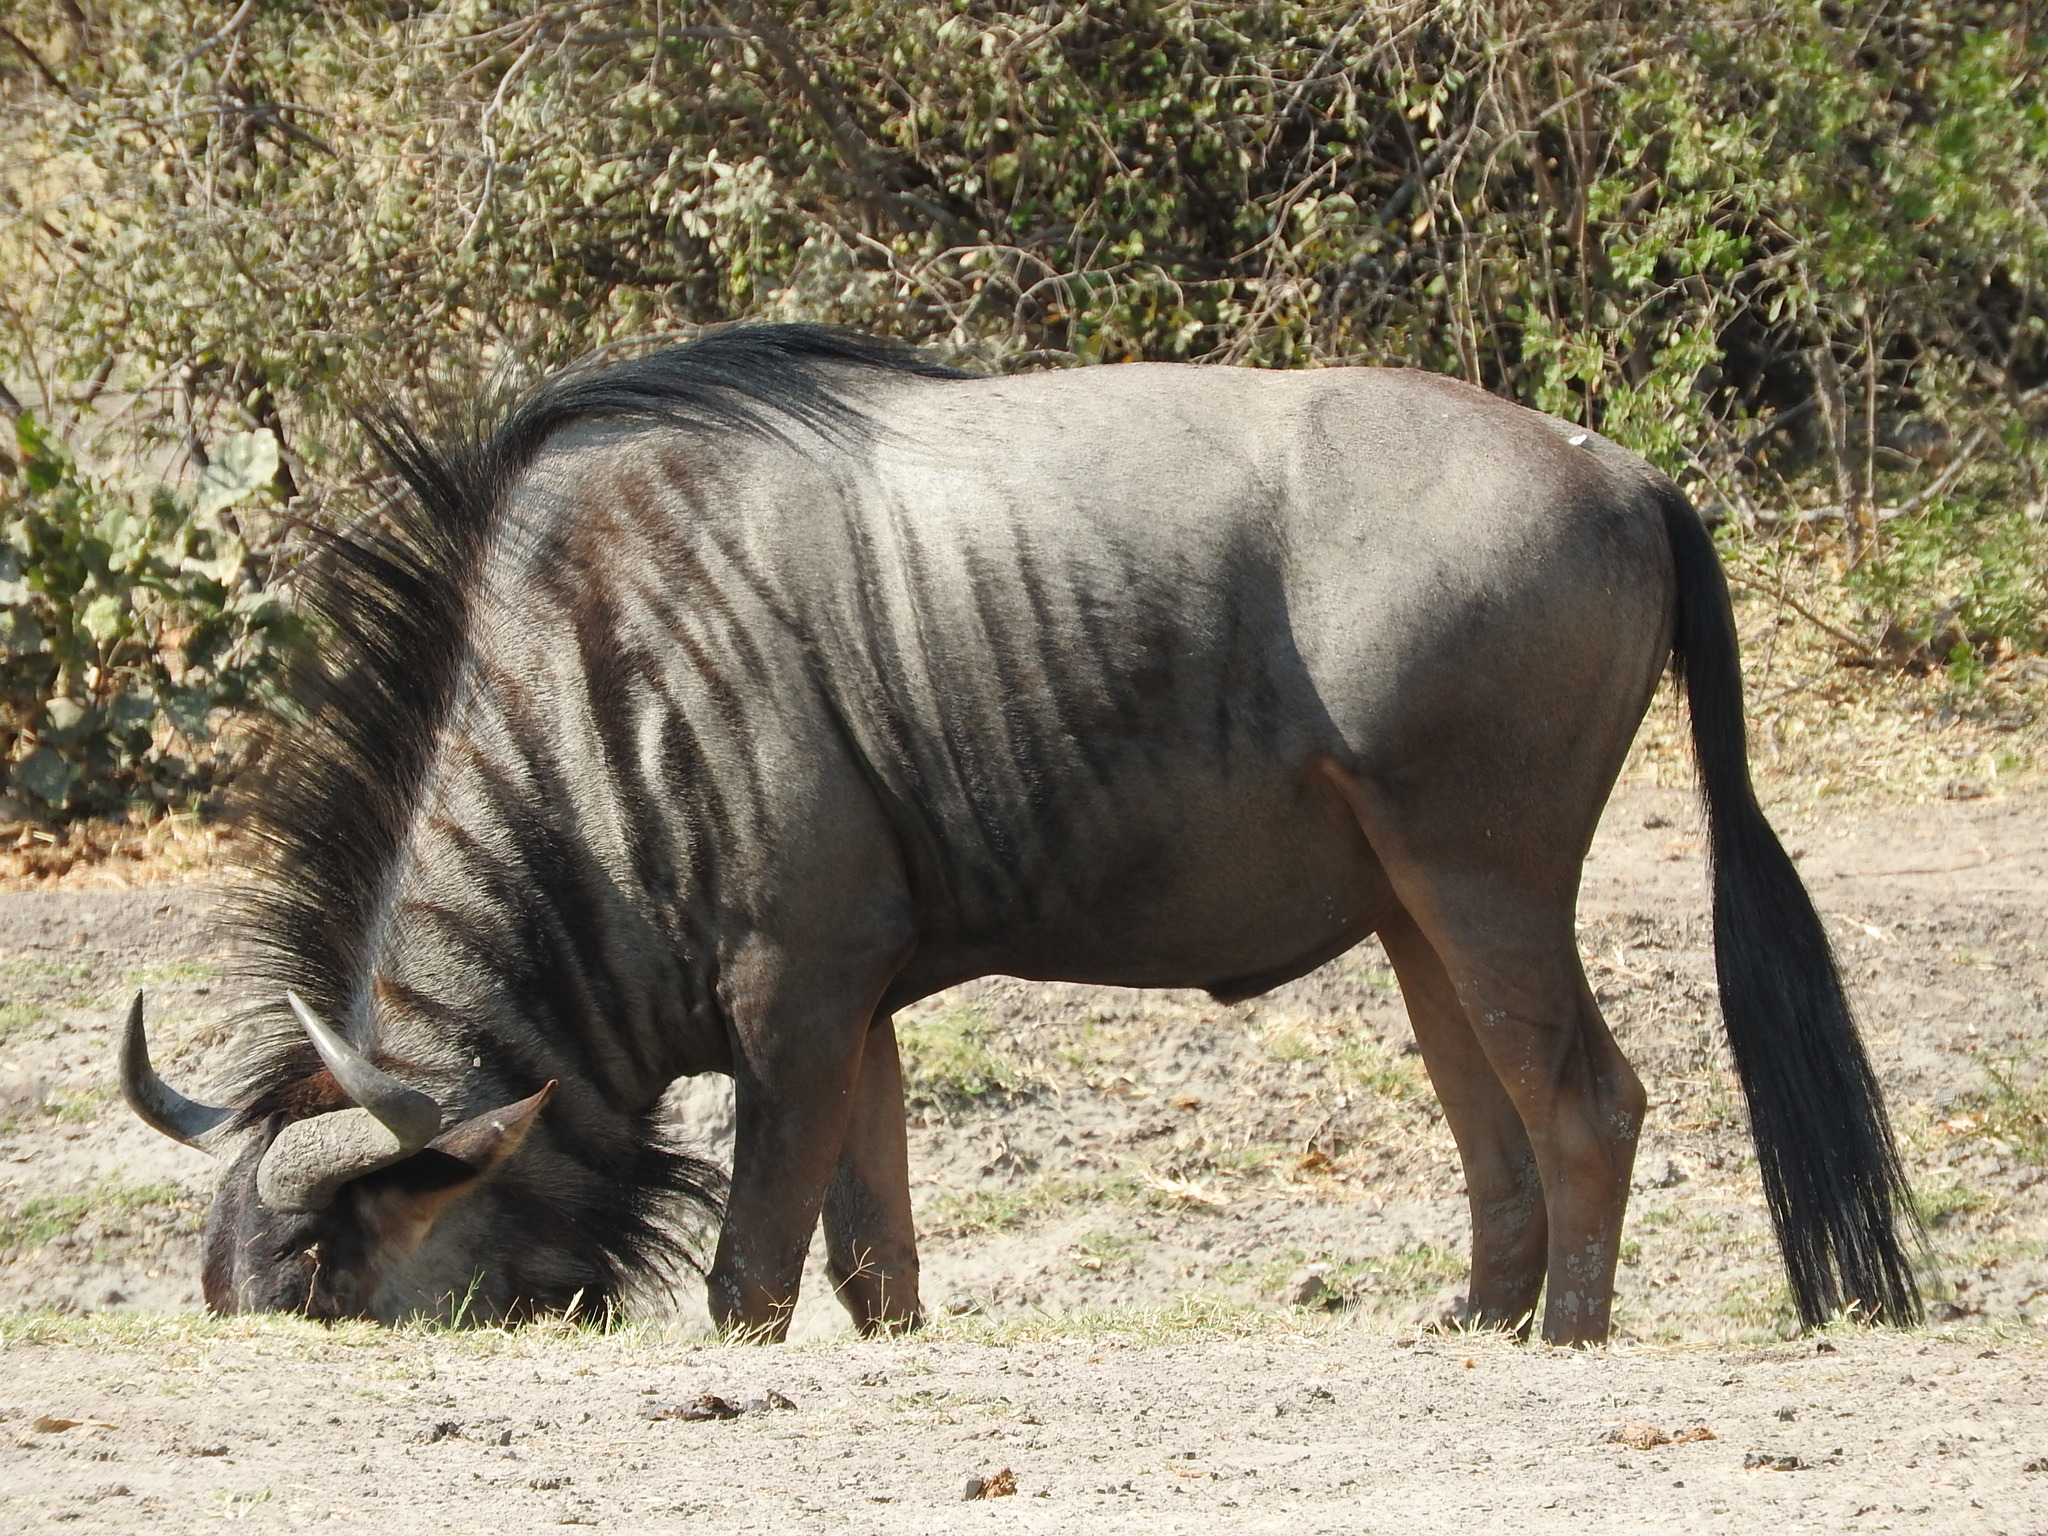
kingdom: Animalia
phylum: Chordata
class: Mammalia
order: Artiodactyla
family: Bovidae
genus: Connochaetes
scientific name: Connochaetes taurinus
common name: Blue wildebeest
